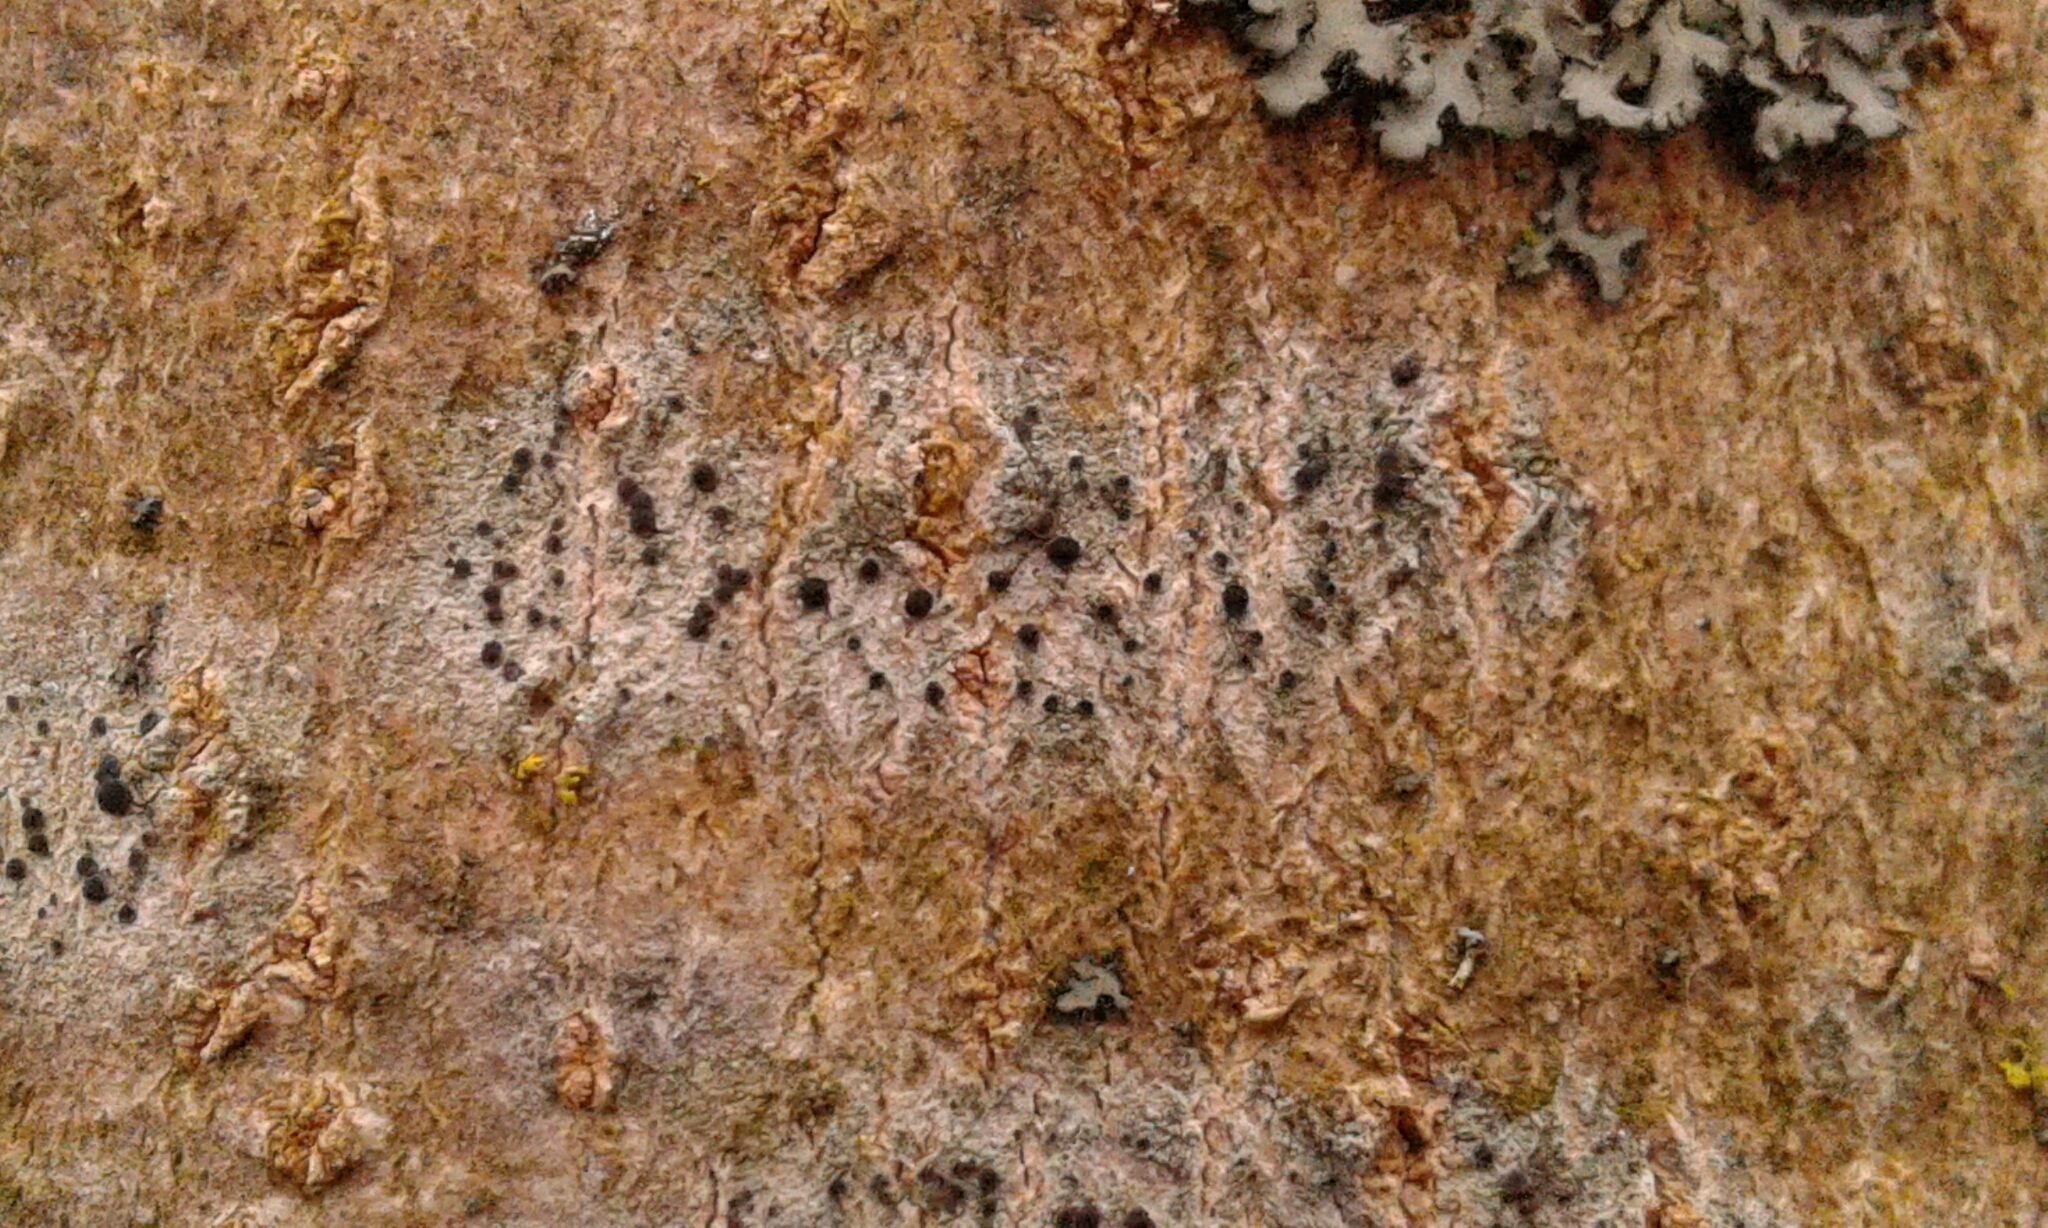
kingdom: Fungi
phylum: Ascomycota
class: Lecanoromycetes
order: Caliciales
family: Caliciaceae
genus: Buellia
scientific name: Buellia erubescens
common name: Common button lichen
